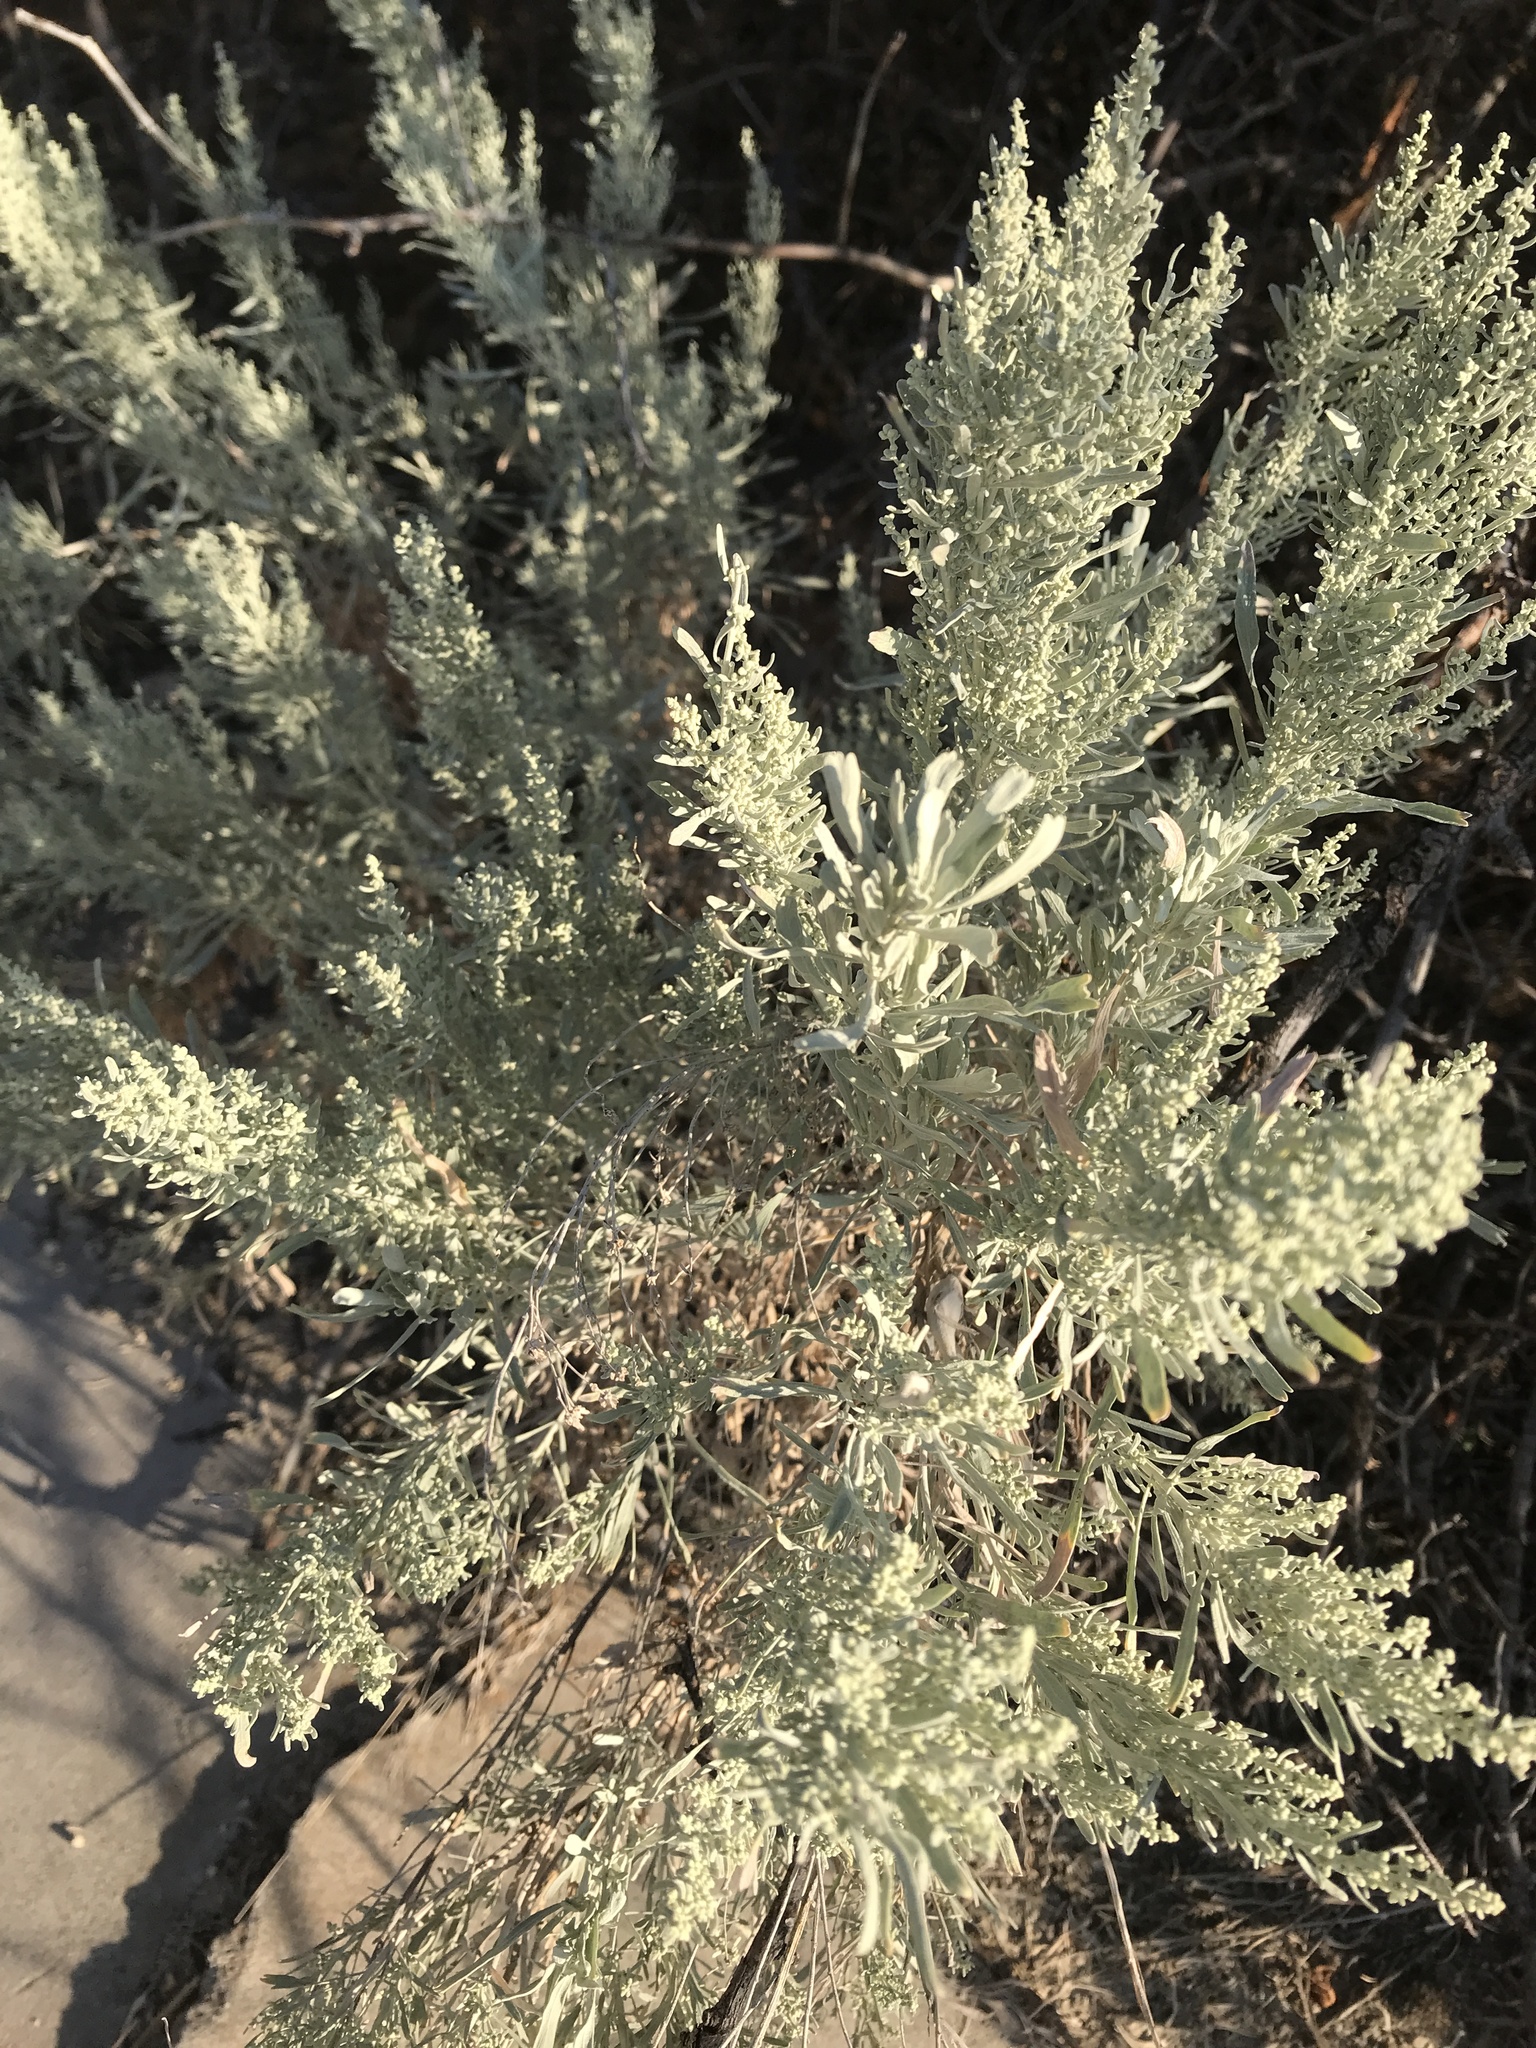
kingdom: Plantae
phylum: Tracheophyta
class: Magnoliopsida
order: Asterales
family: Asteraceae
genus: Artemisia
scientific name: Artemisia tridentata
